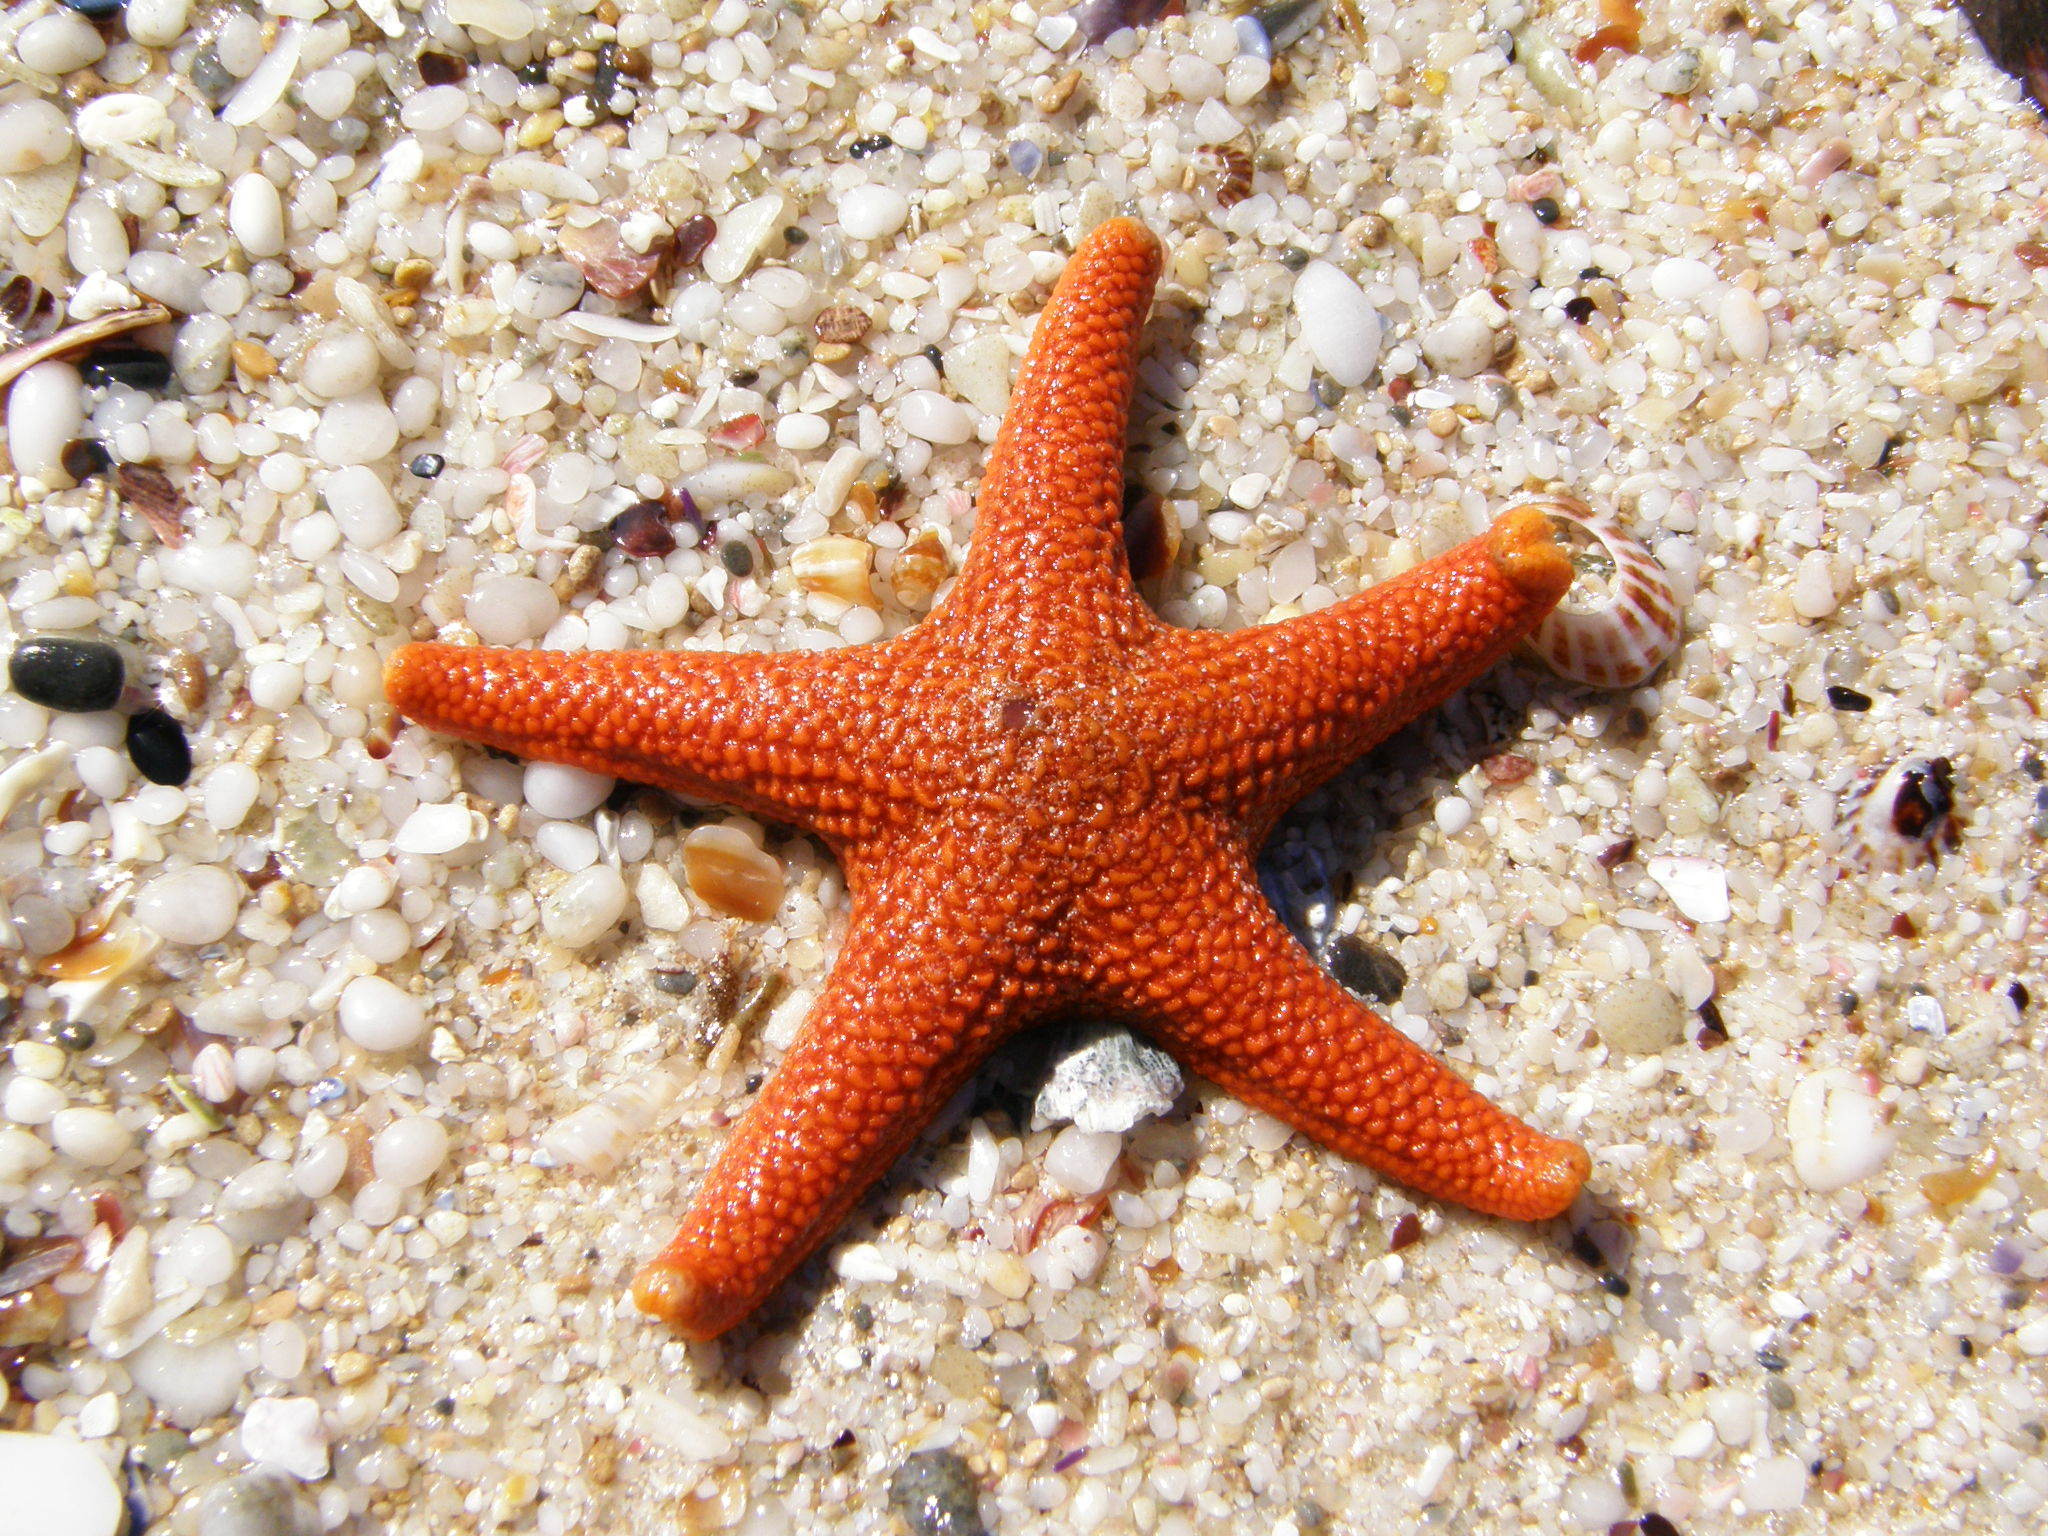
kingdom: Animalia
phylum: Echinodermata
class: Asteroidea
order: Spinulosida
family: Echinasteridae
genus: Henricia
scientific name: Henricia ornata
